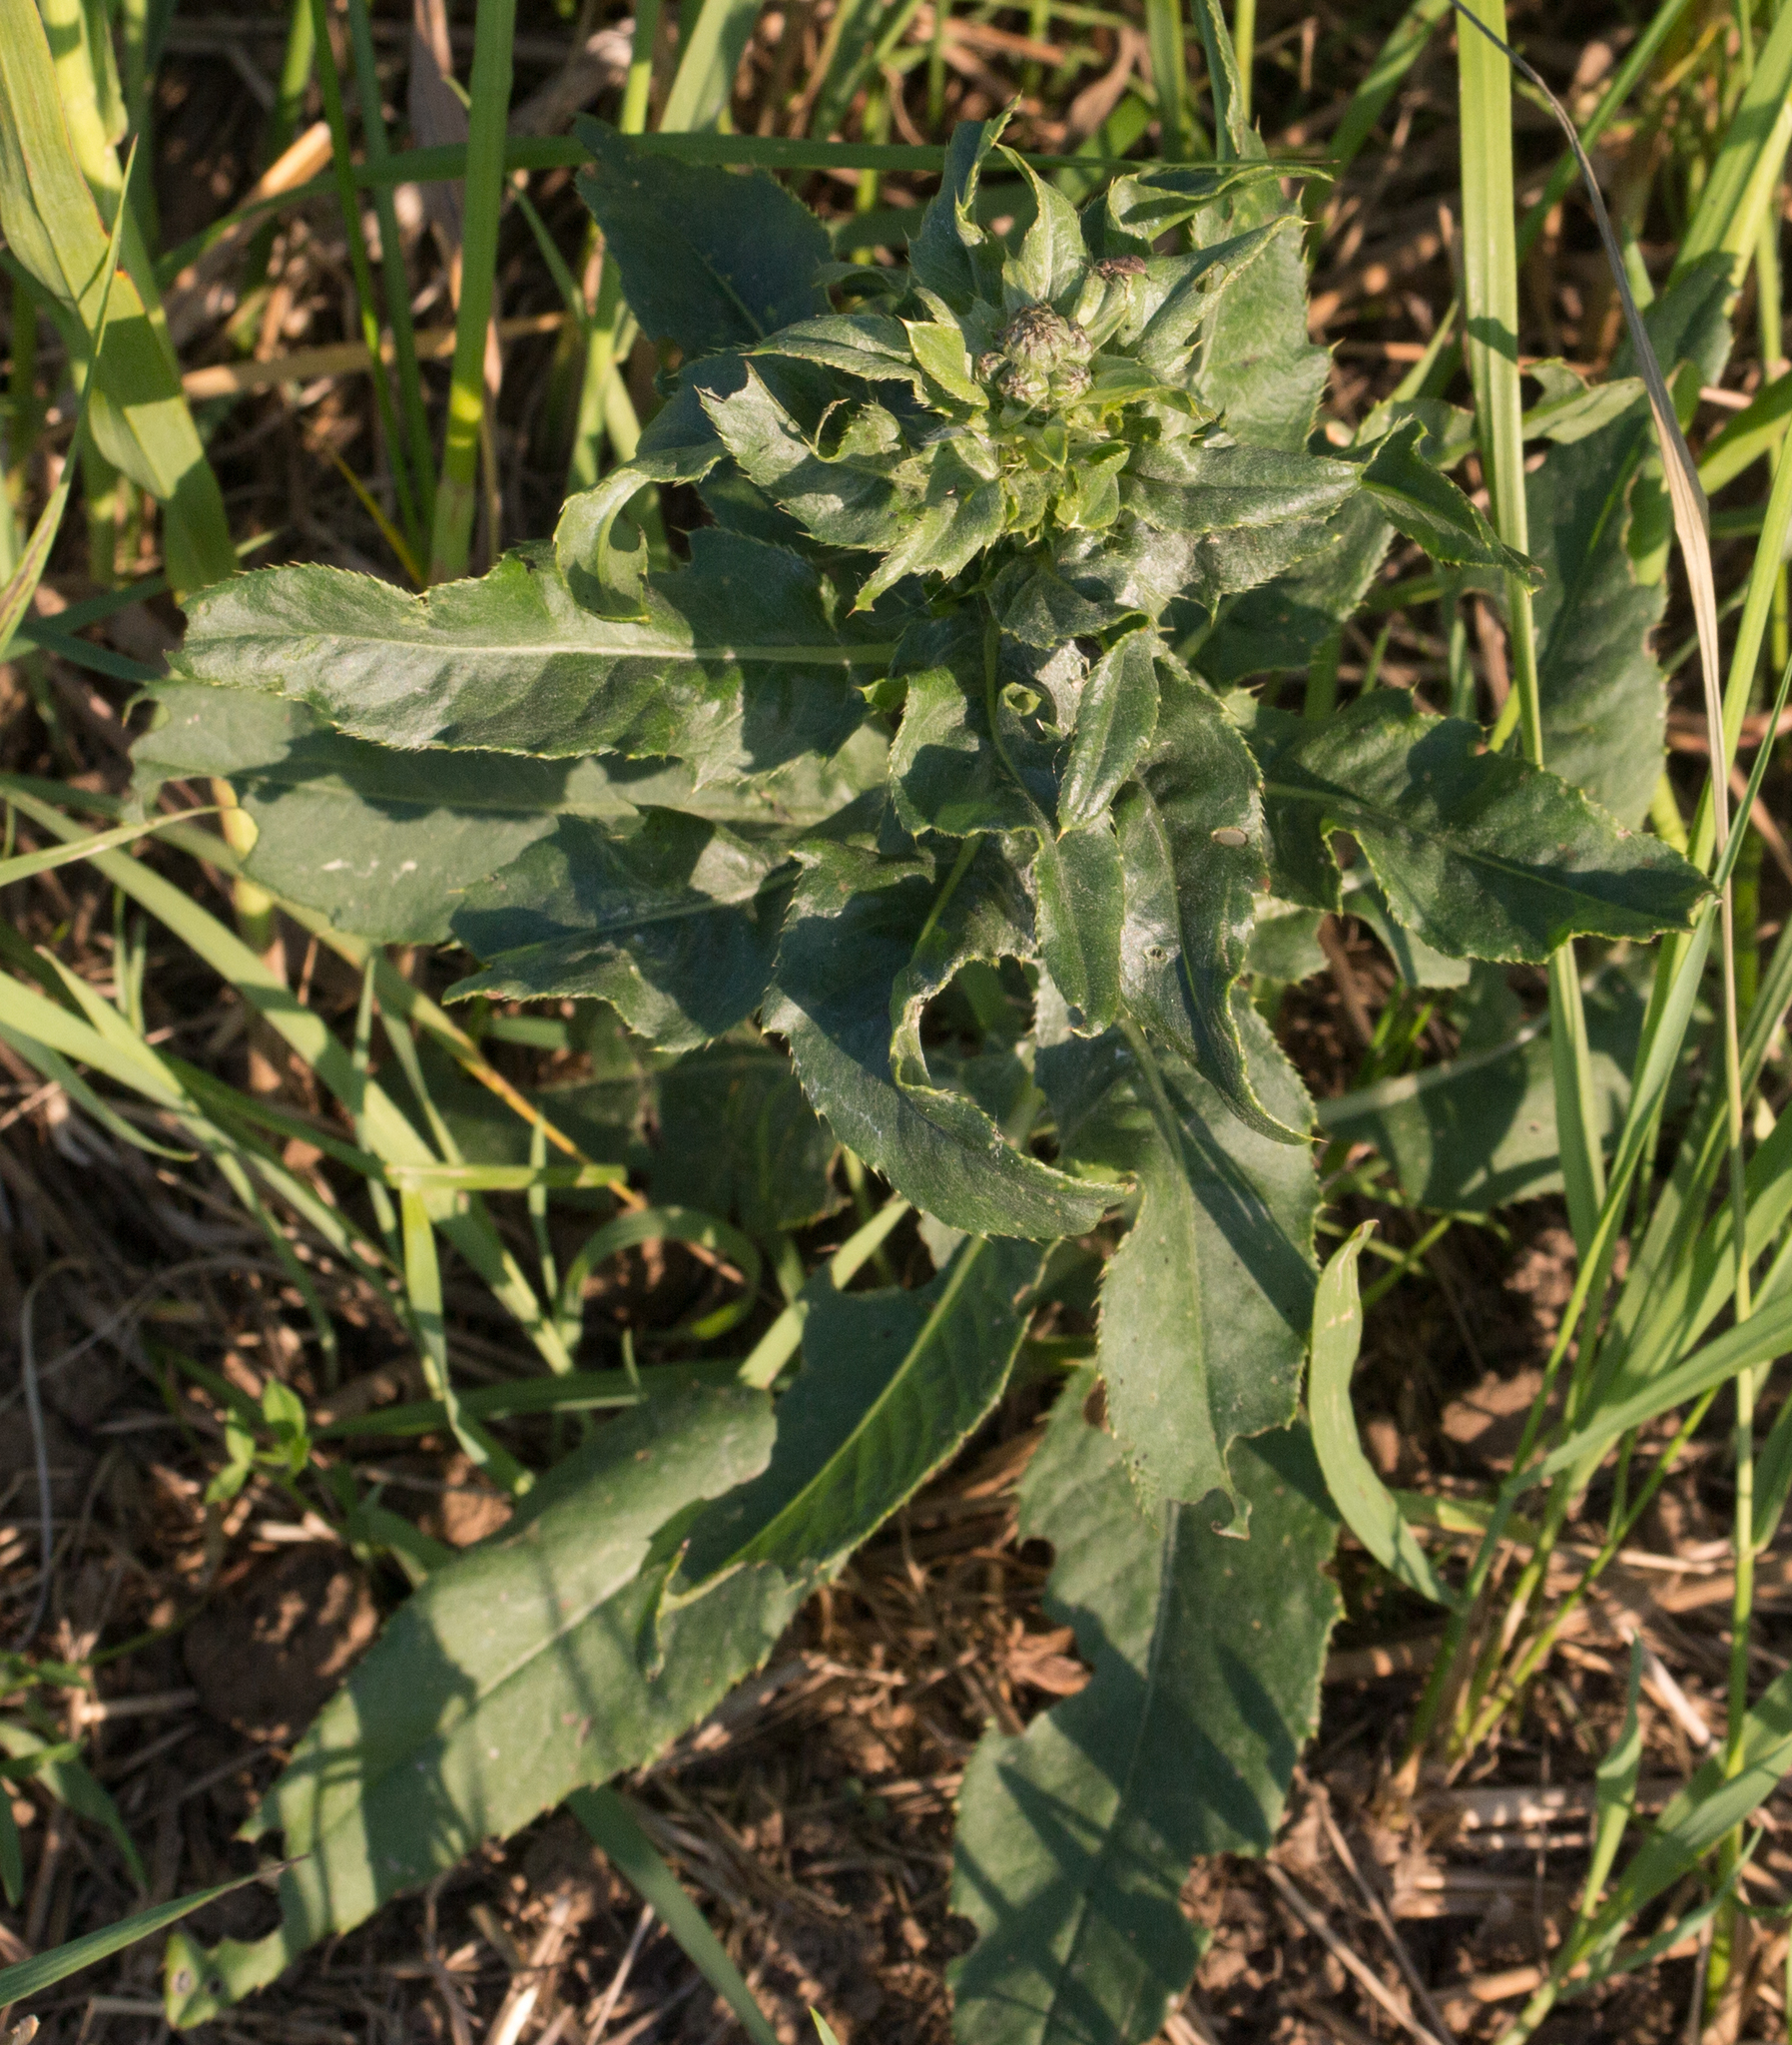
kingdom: Plantae
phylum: Tracheophyta
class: Magnoliopsida
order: Asterales
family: Asteraceae
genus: Cirsium
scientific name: Cirsium arvense
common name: Creeping thistle
